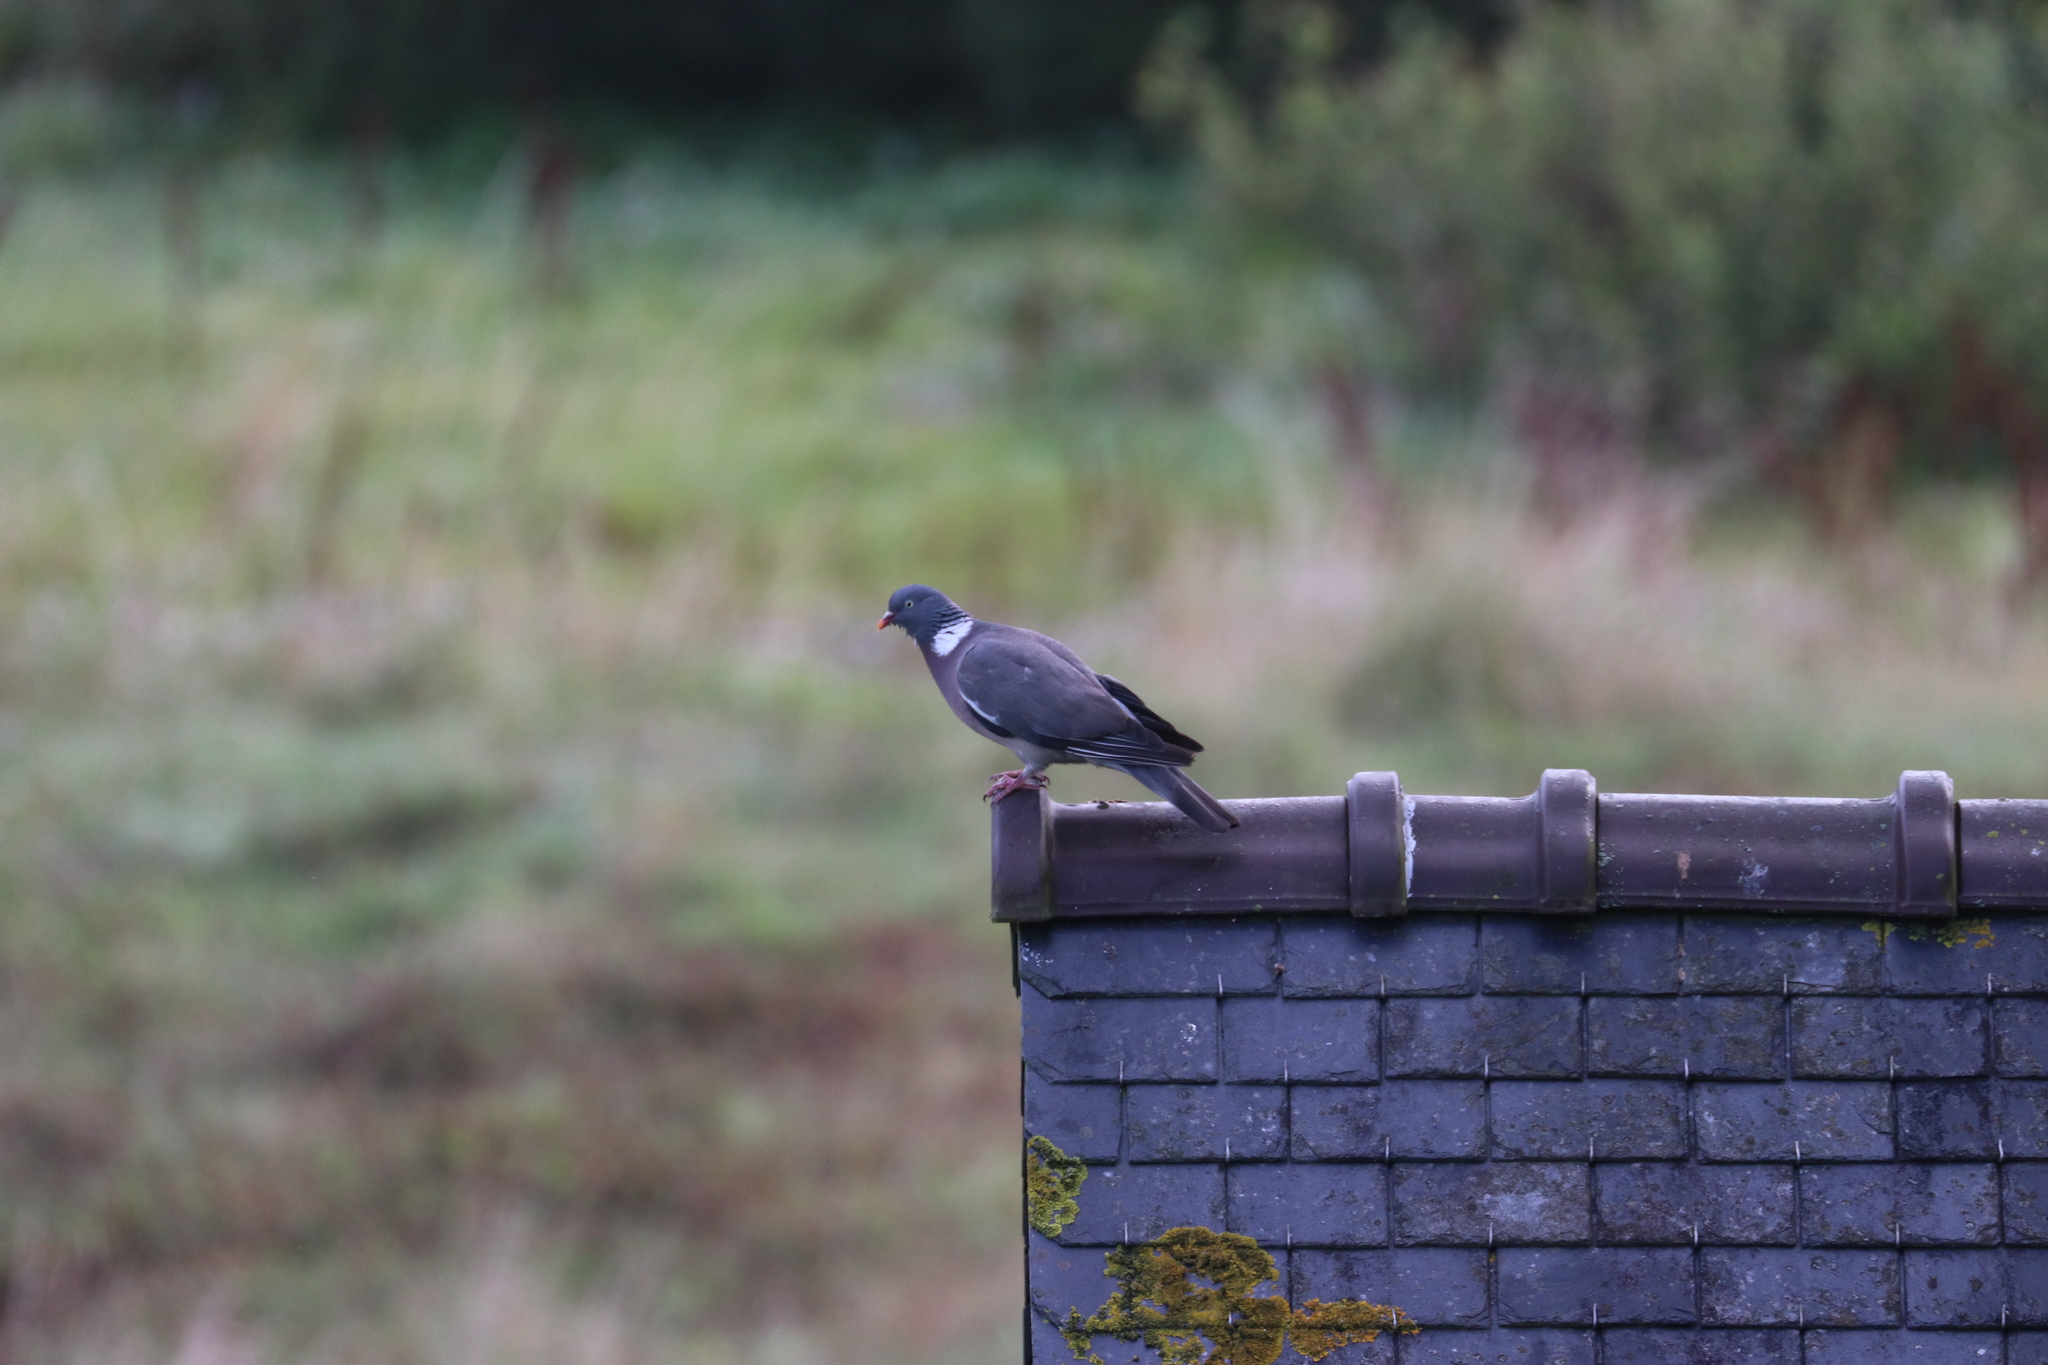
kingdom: Animalia
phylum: Chordata
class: Aves
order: Columbiformes
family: Columbidae
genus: Columba
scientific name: Columba palumbus
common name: Common wood pigeon
